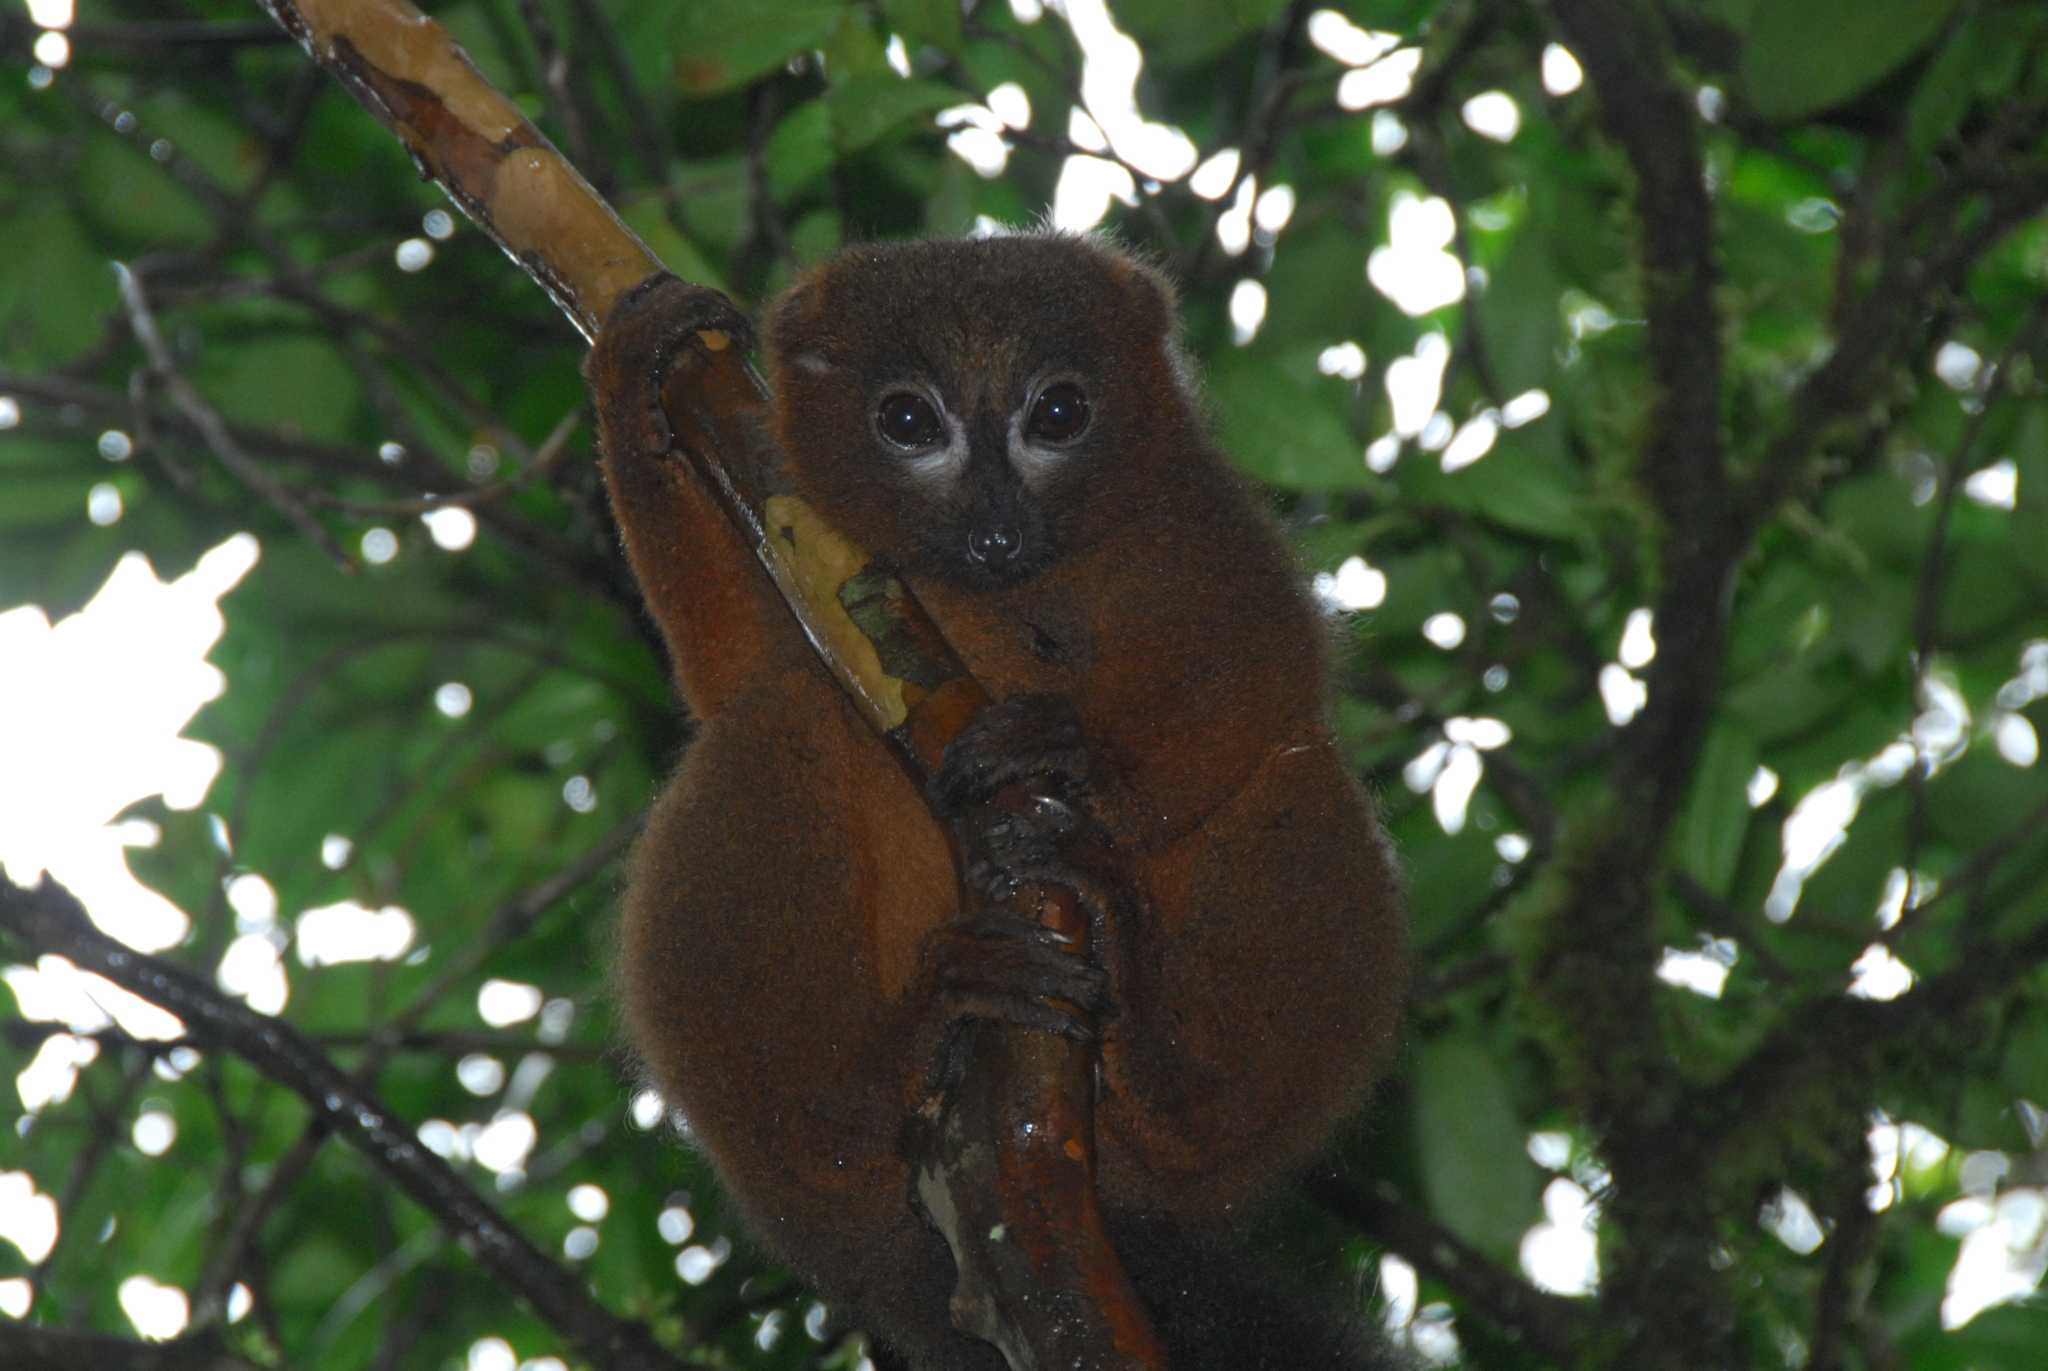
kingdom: Animalia
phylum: Chordata
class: Mammalia
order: Primates
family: Lemuridae
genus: Eulemur
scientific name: Eulemur rubriventer
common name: Red-bellied lemur
